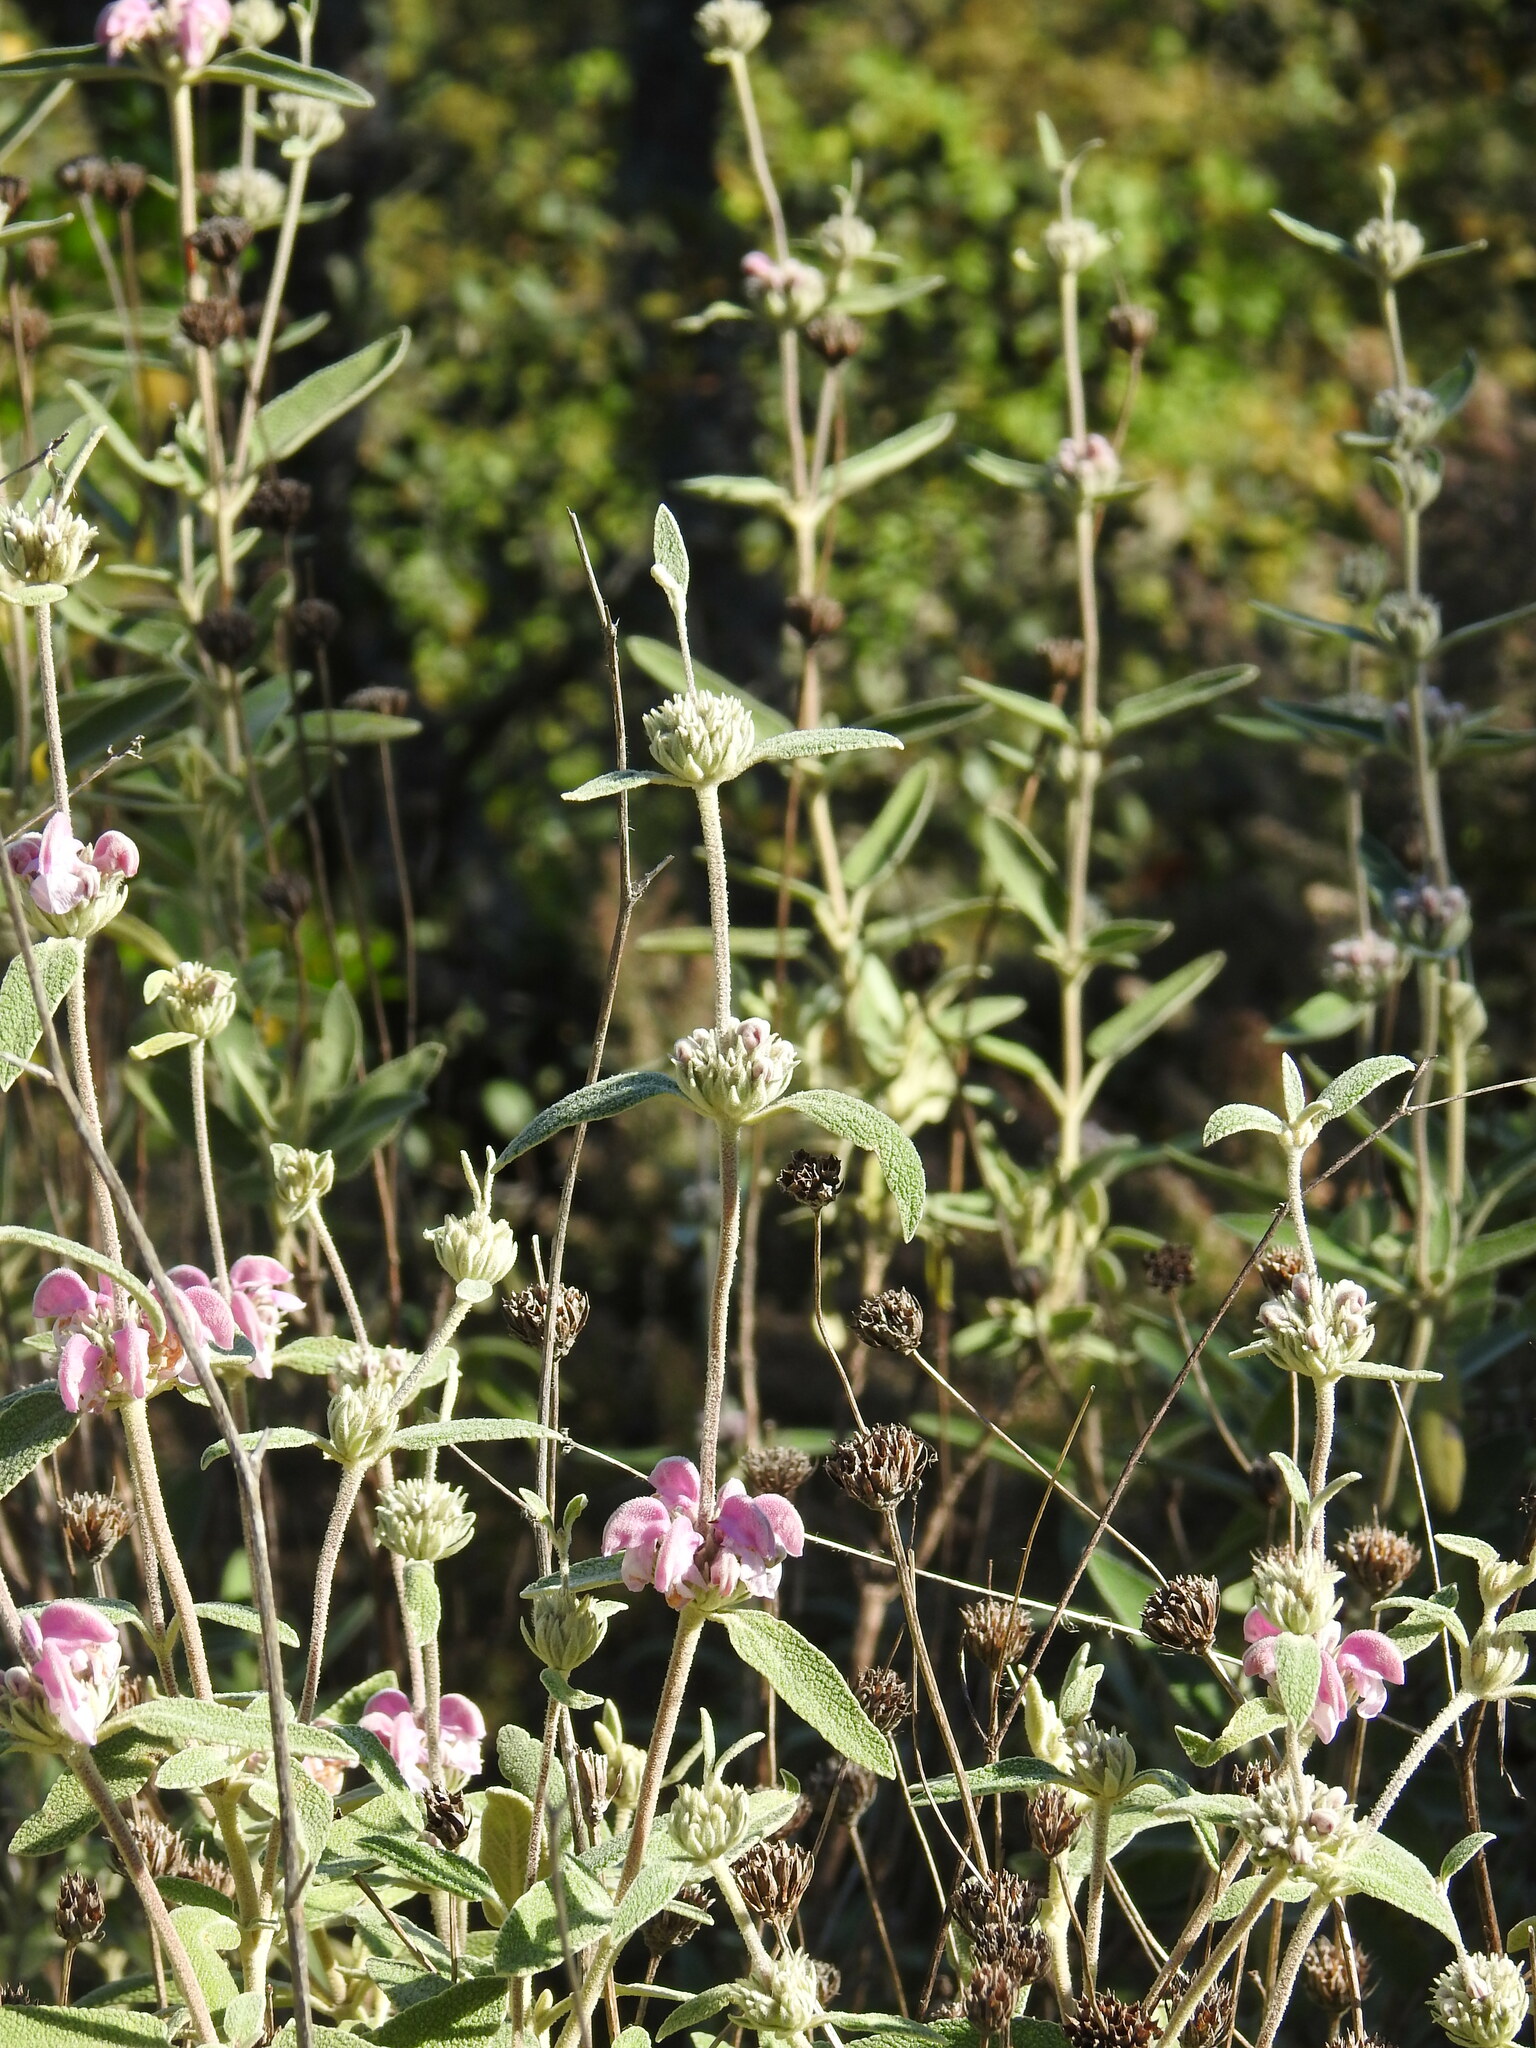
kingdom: Plantae
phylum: Tracheophyta
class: Magnoliopsida
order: Lamiales
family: Lamiaceae
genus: Phlomis
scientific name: Phlomis purpurea
